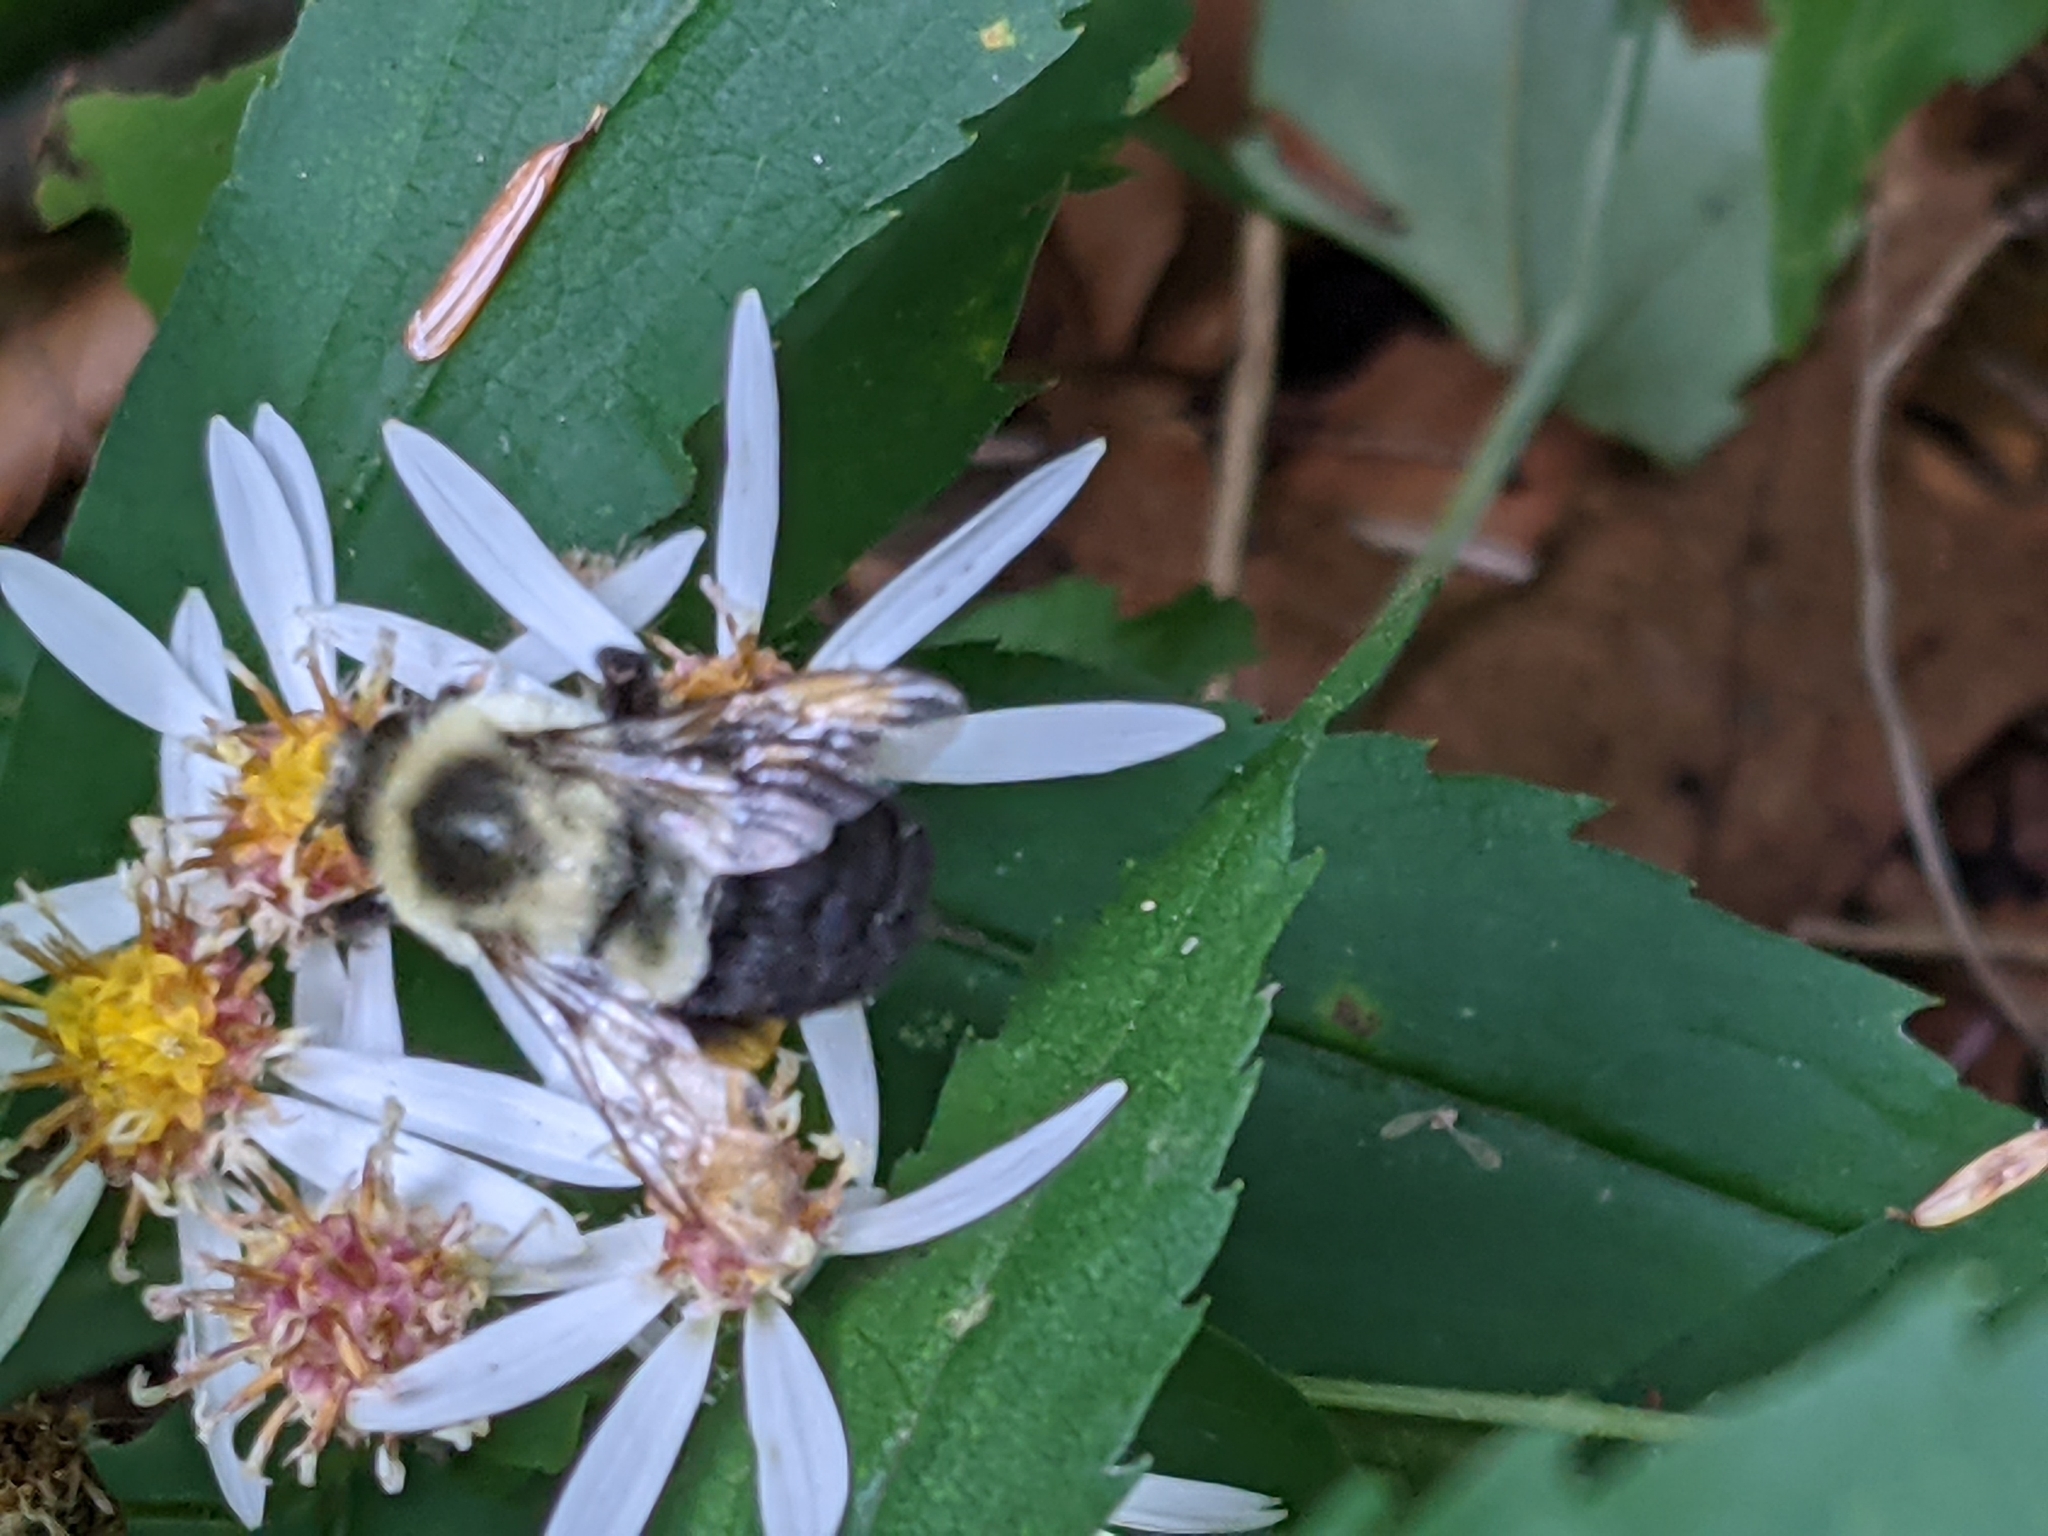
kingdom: Animalia
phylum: Arthropoda
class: Insecta
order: Hymenoptera
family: Apidae
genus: Bombus
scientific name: Bombus impatiens
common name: Common eastern bumble bee
